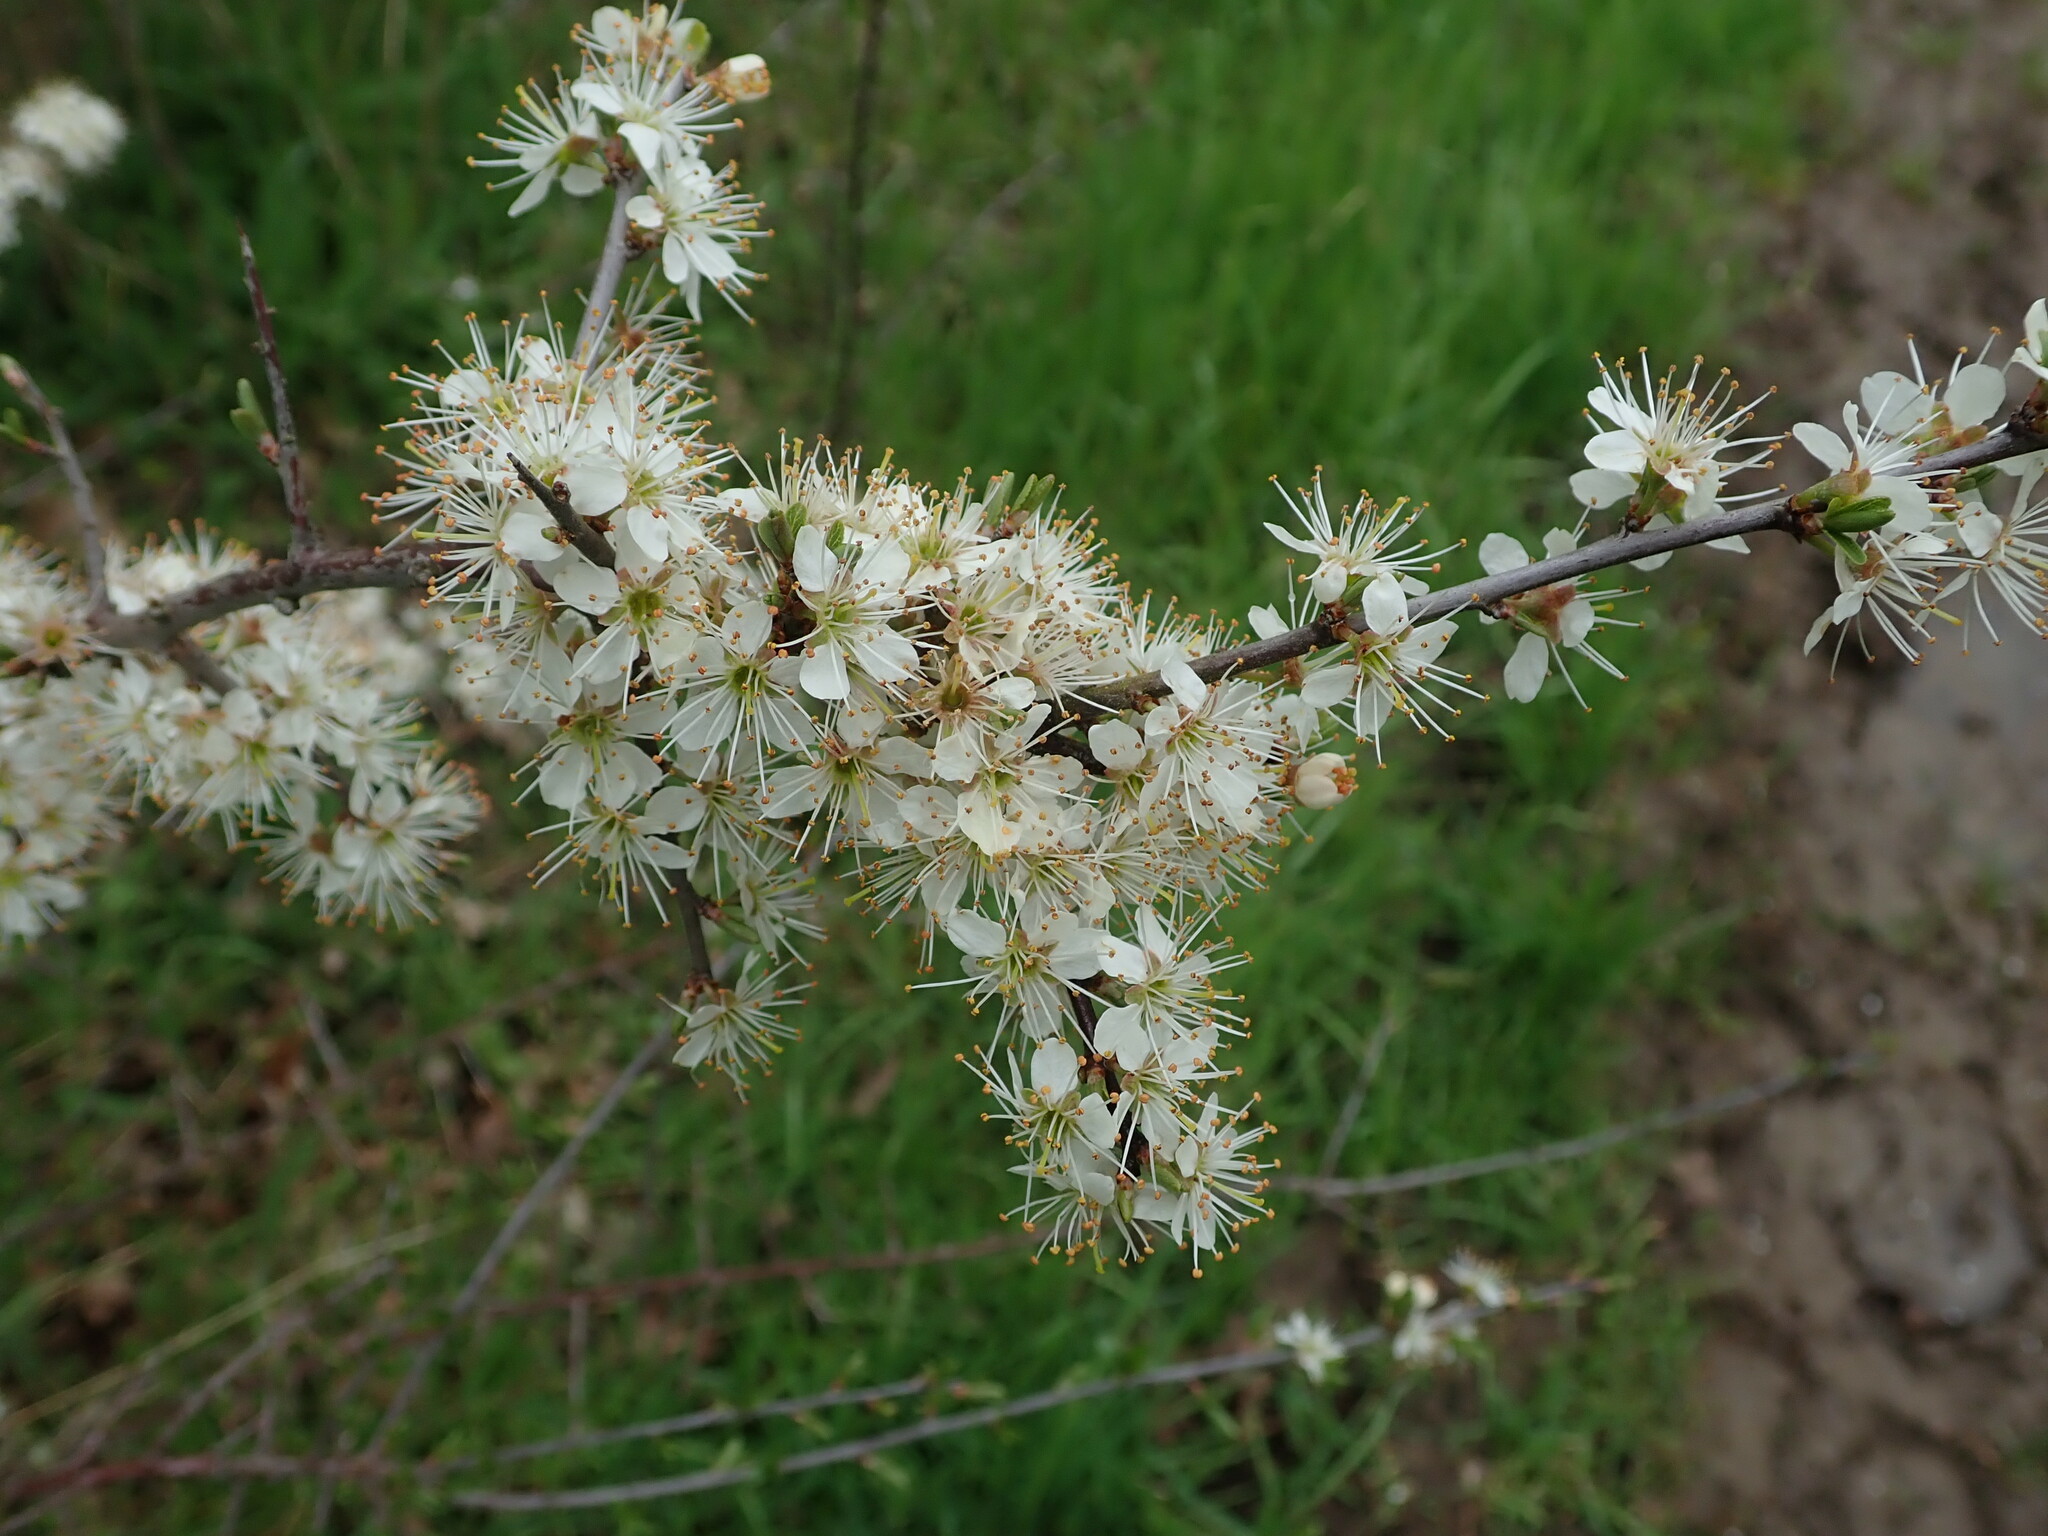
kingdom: Plantae
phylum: Tracheophyta
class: Magnoliopsida
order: Rosales
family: Rosaceae
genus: Prunus
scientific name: Prunus spinosa
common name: Blackthorn
